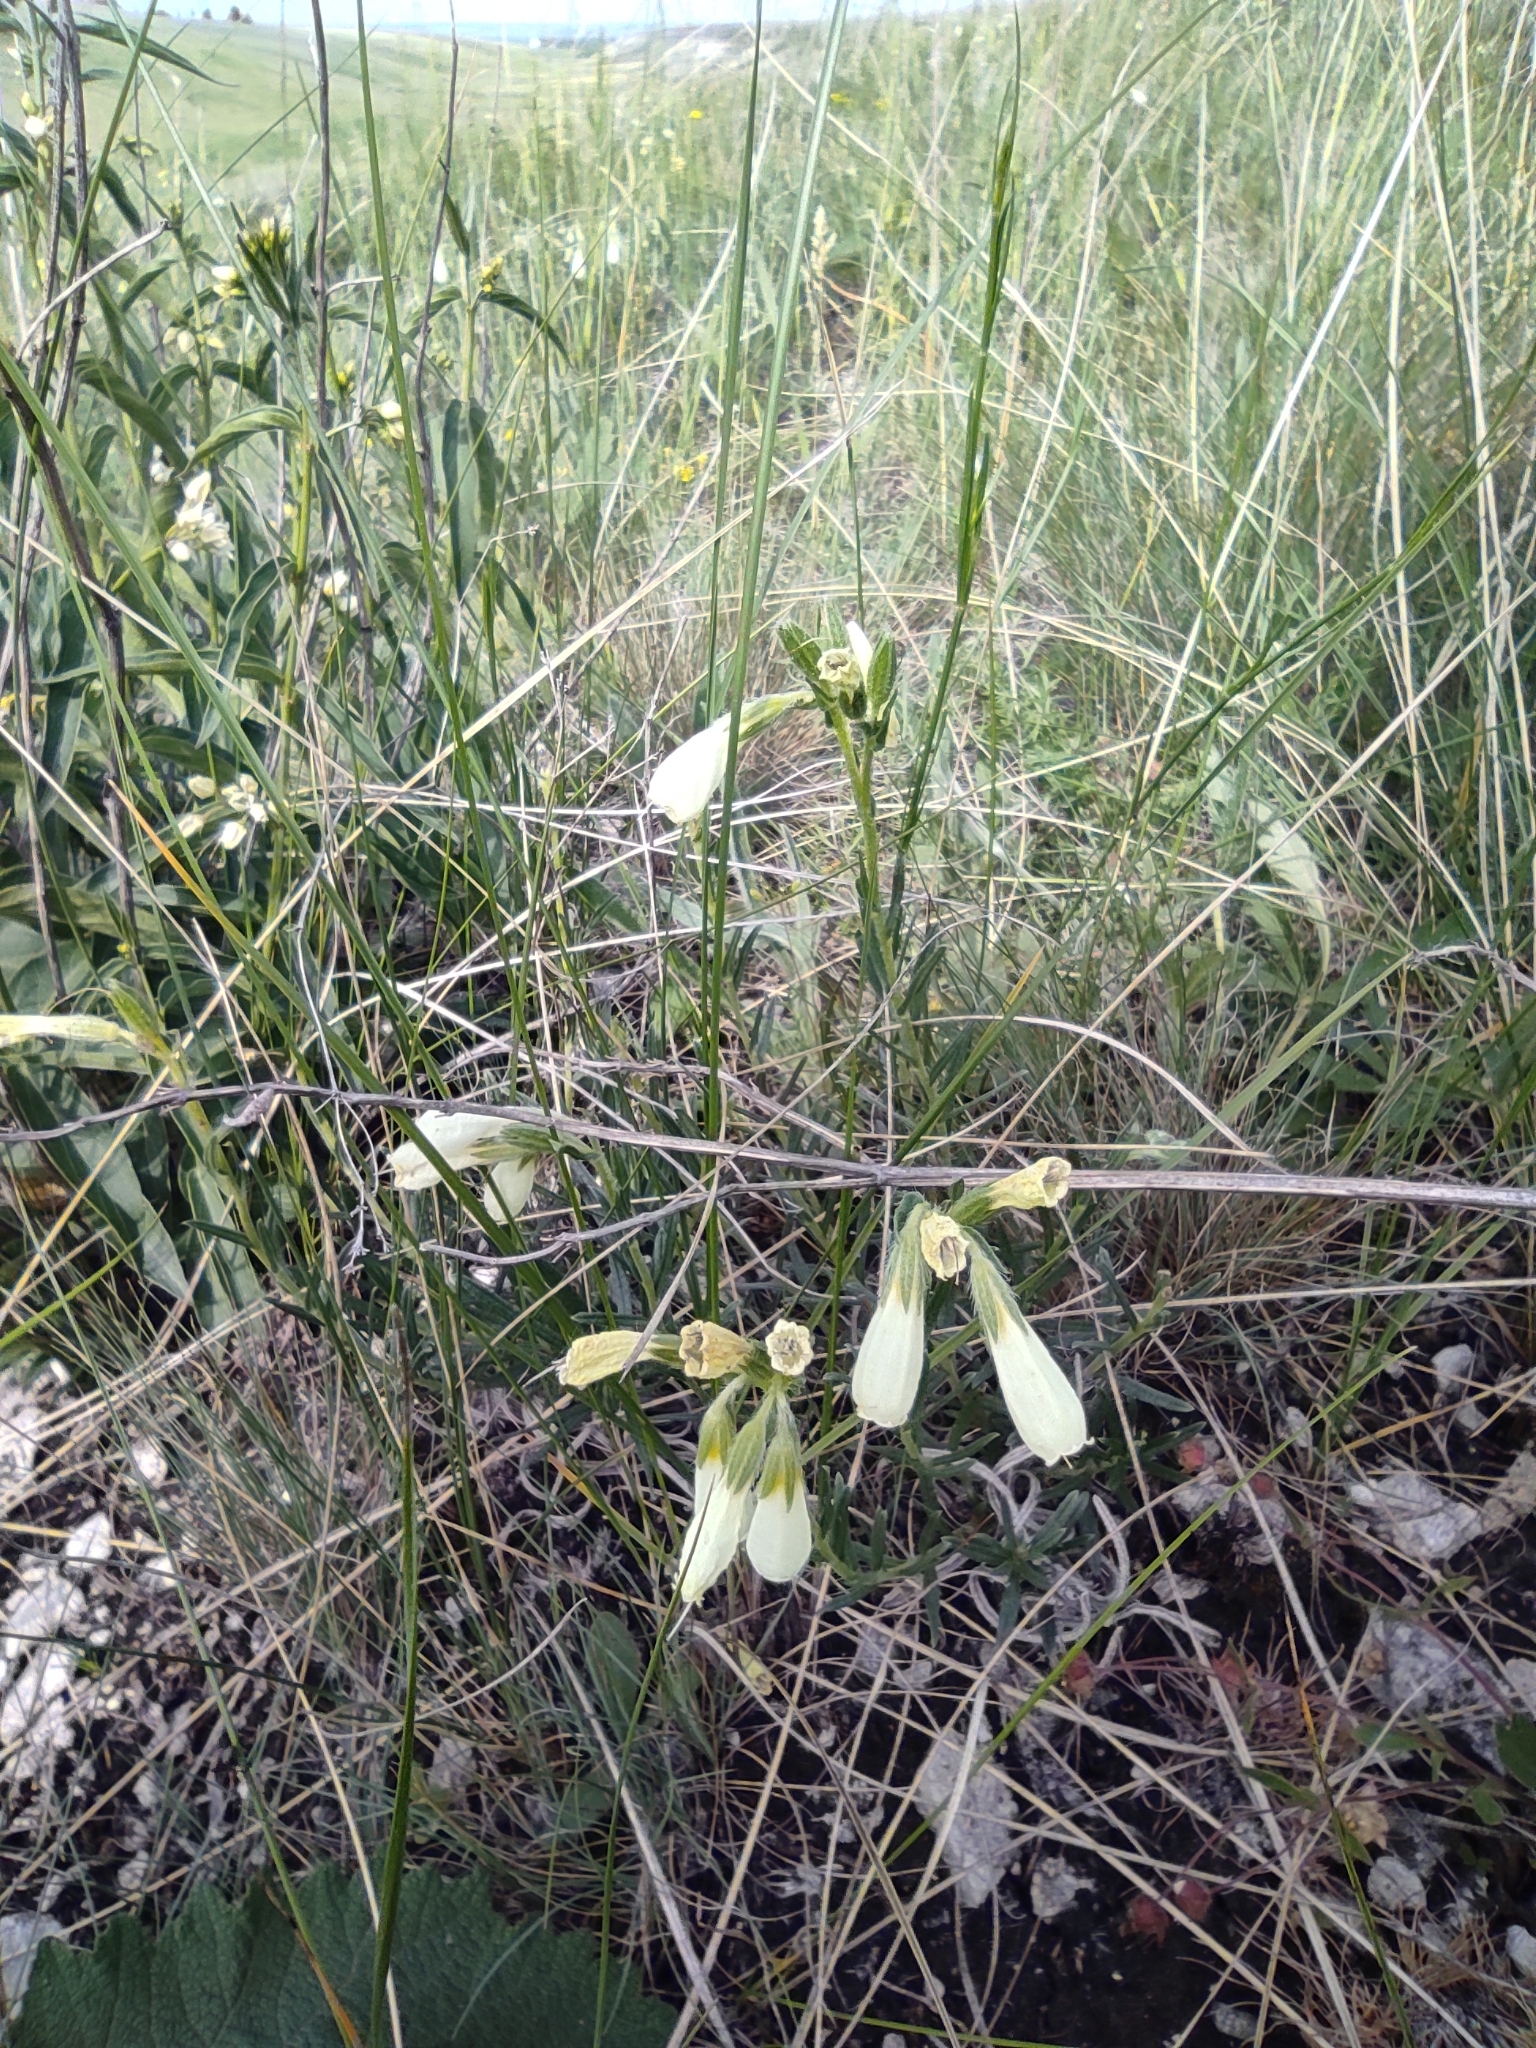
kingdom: Plantae
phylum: Tracheophyta
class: Magnoliopsida
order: Boraginales
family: Boraginaceae
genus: Onosma
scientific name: Onosma simplicissima
